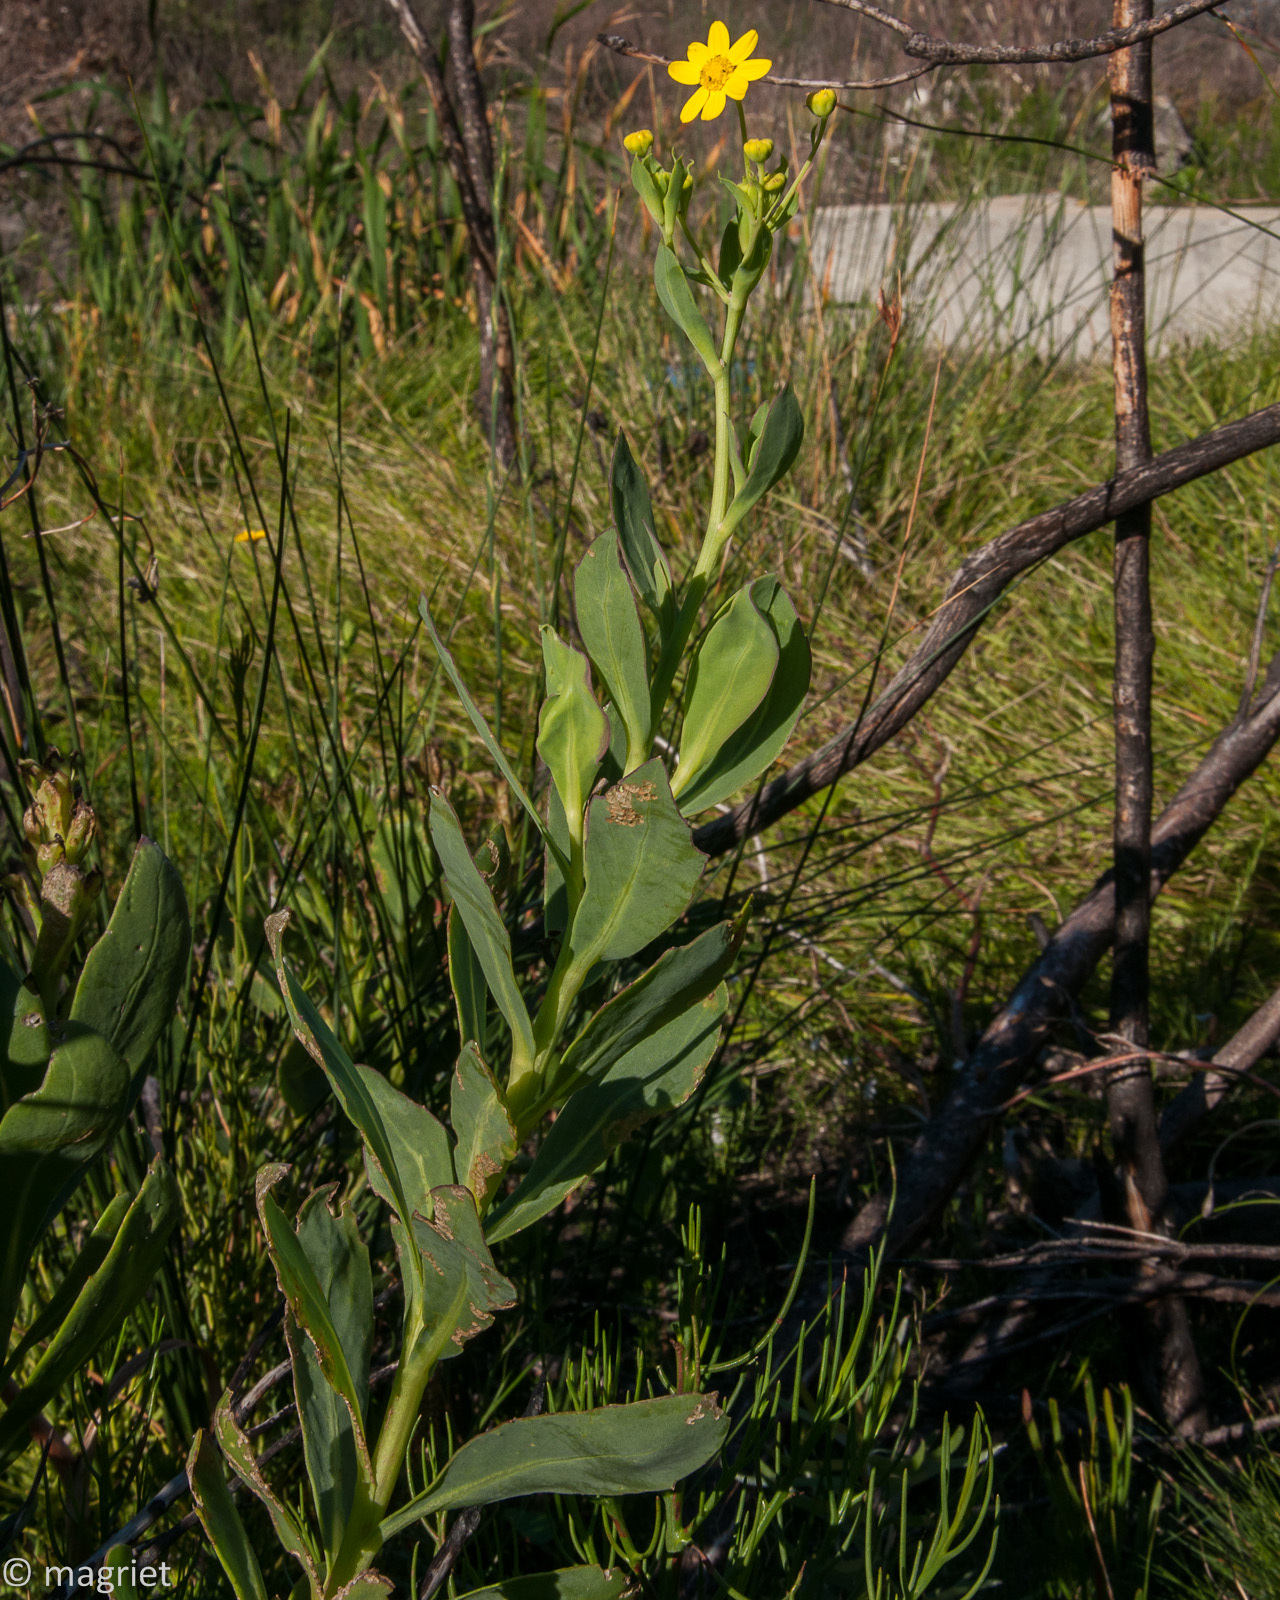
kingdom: Plantae
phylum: Tracheophyta
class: Magnoliopsida
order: Asterales
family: Asteraceae
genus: Othonna
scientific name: Othonna quinquedentata
